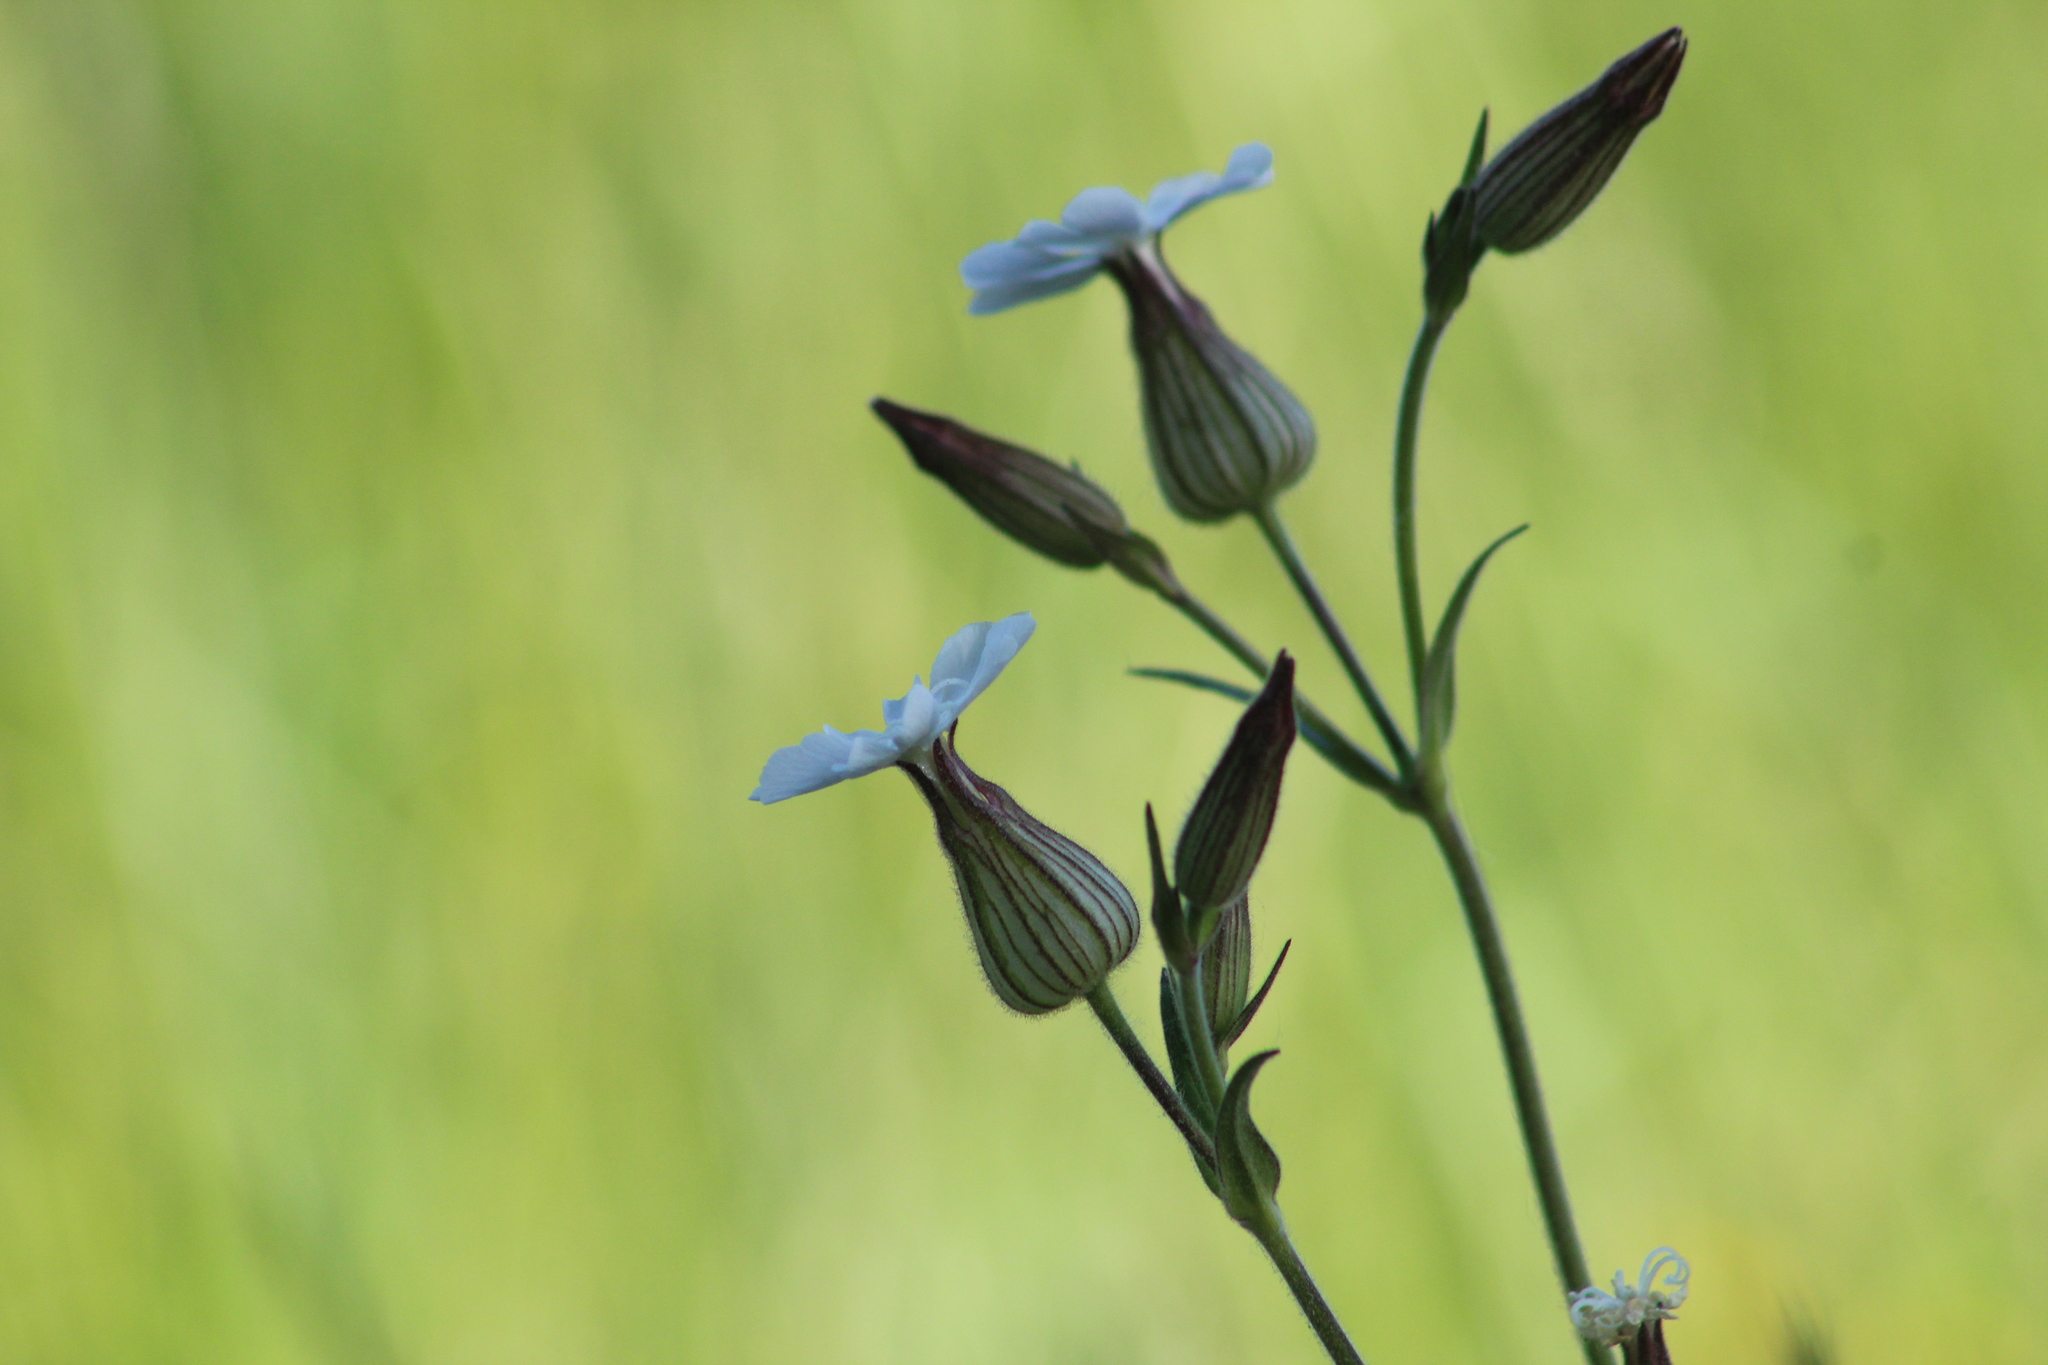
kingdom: Plantae
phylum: Tracheophyta
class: Magnoliopsida
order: Caryophyllales
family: Caryophyllaceae
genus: Silene
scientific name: Silene latifolia
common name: White campion
